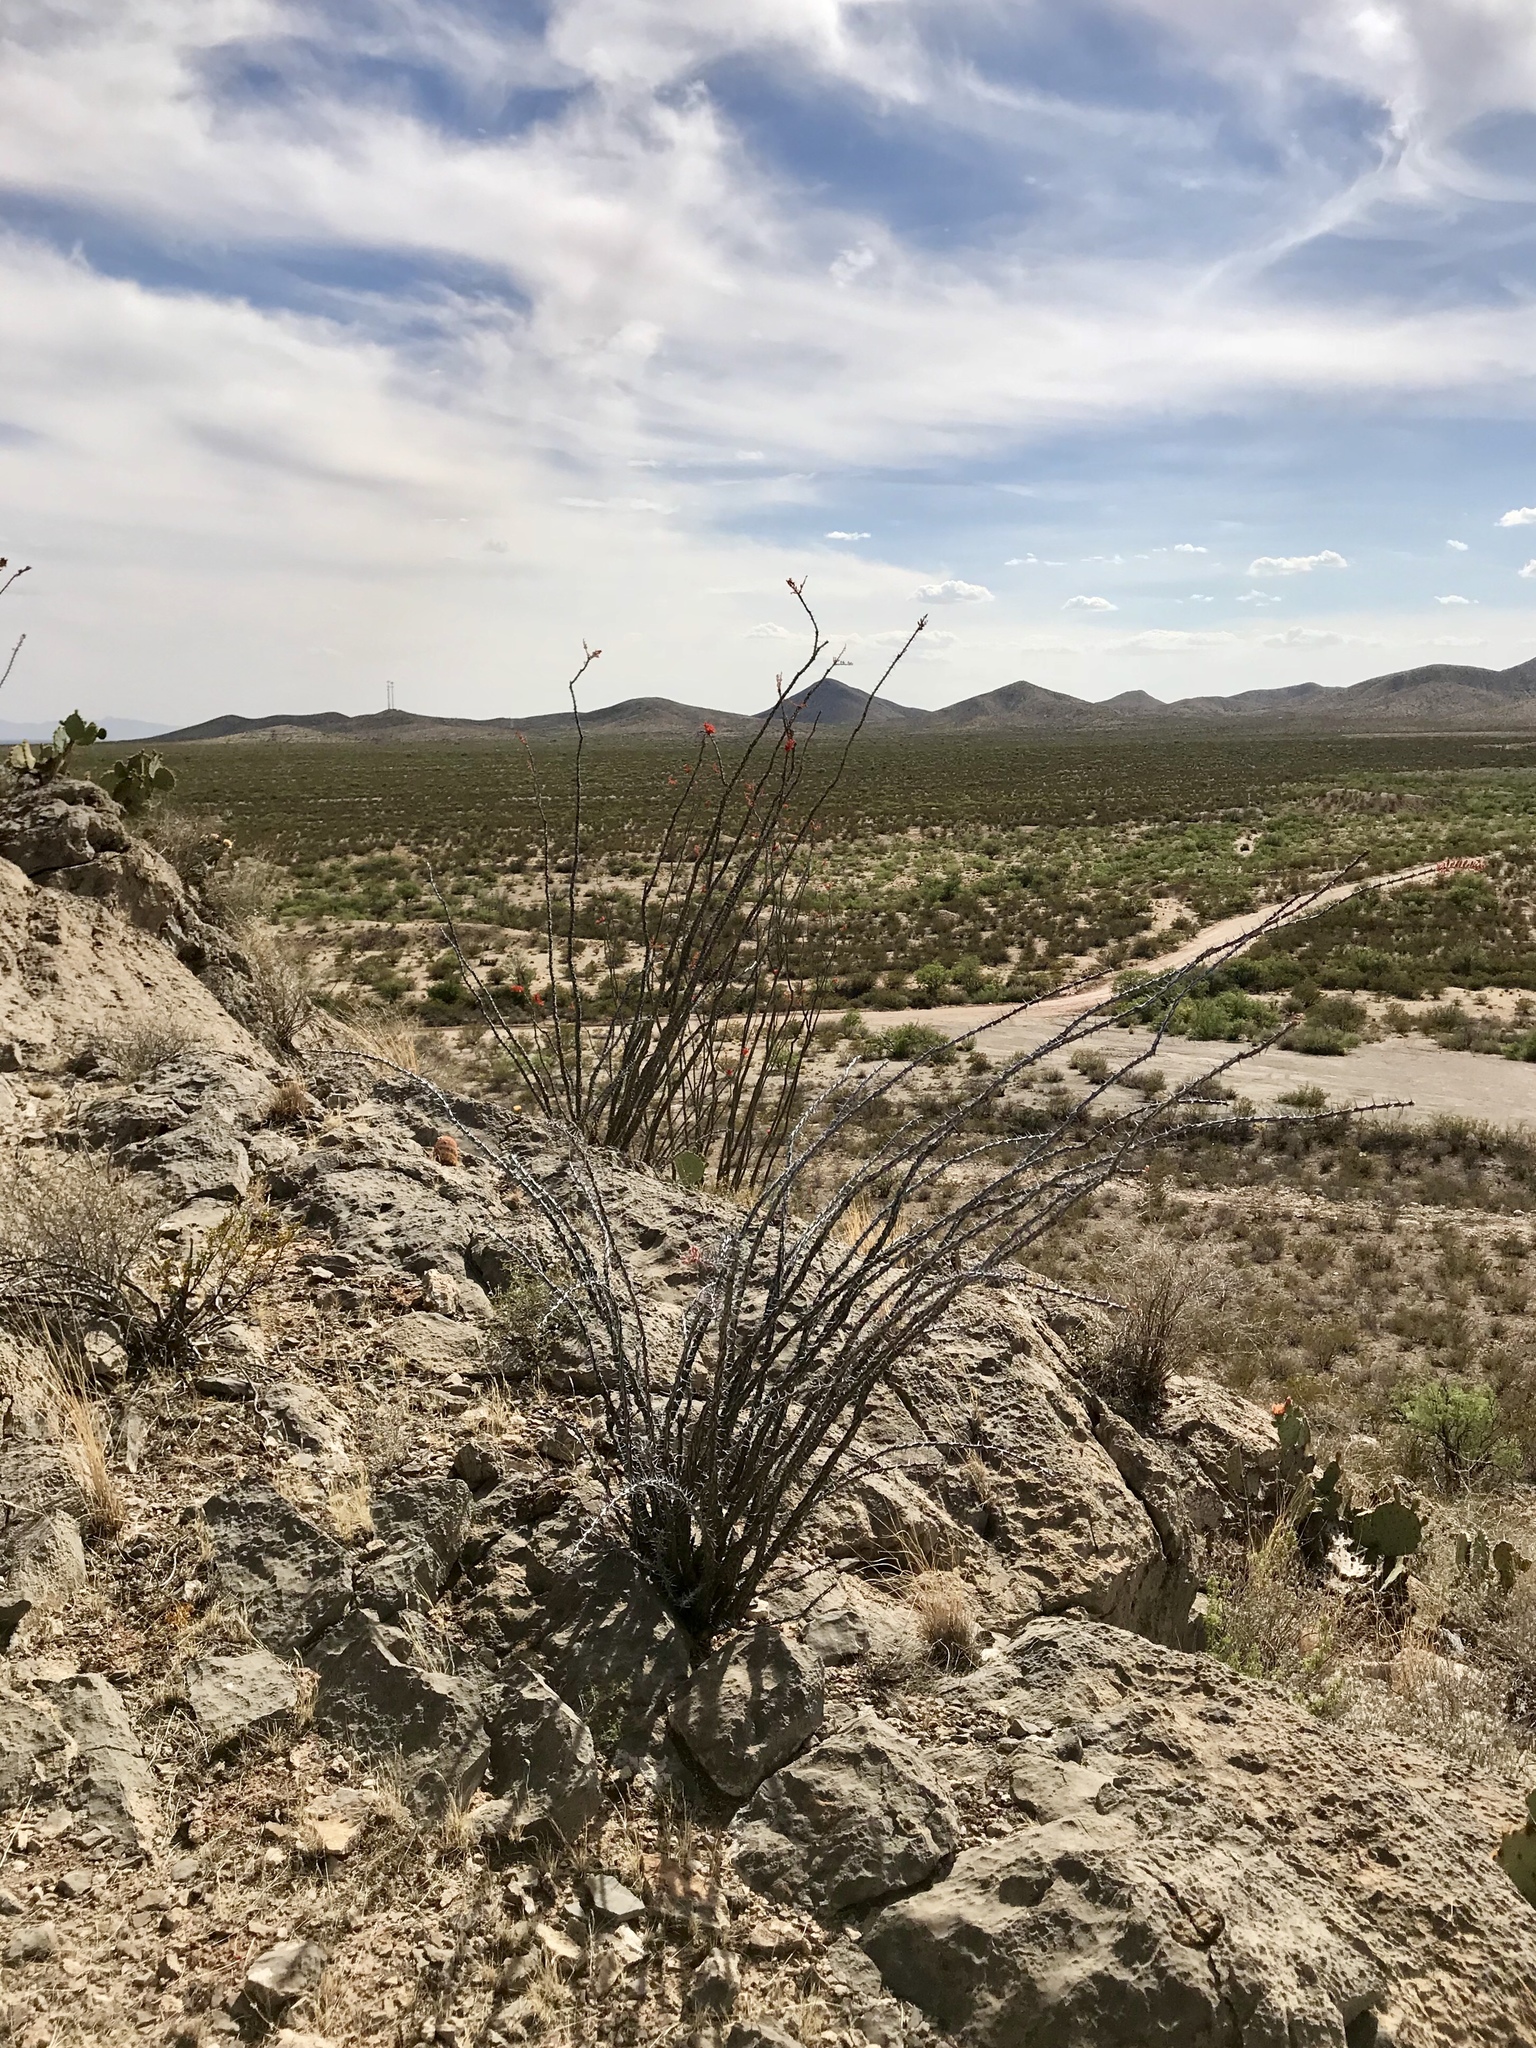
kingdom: Plantae
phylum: Tracheophyta
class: Magnoliopsida
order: Ericales
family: Fouquieriaceae
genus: Fouquieria
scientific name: Fouquieria splendens
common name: Vine-cactus
